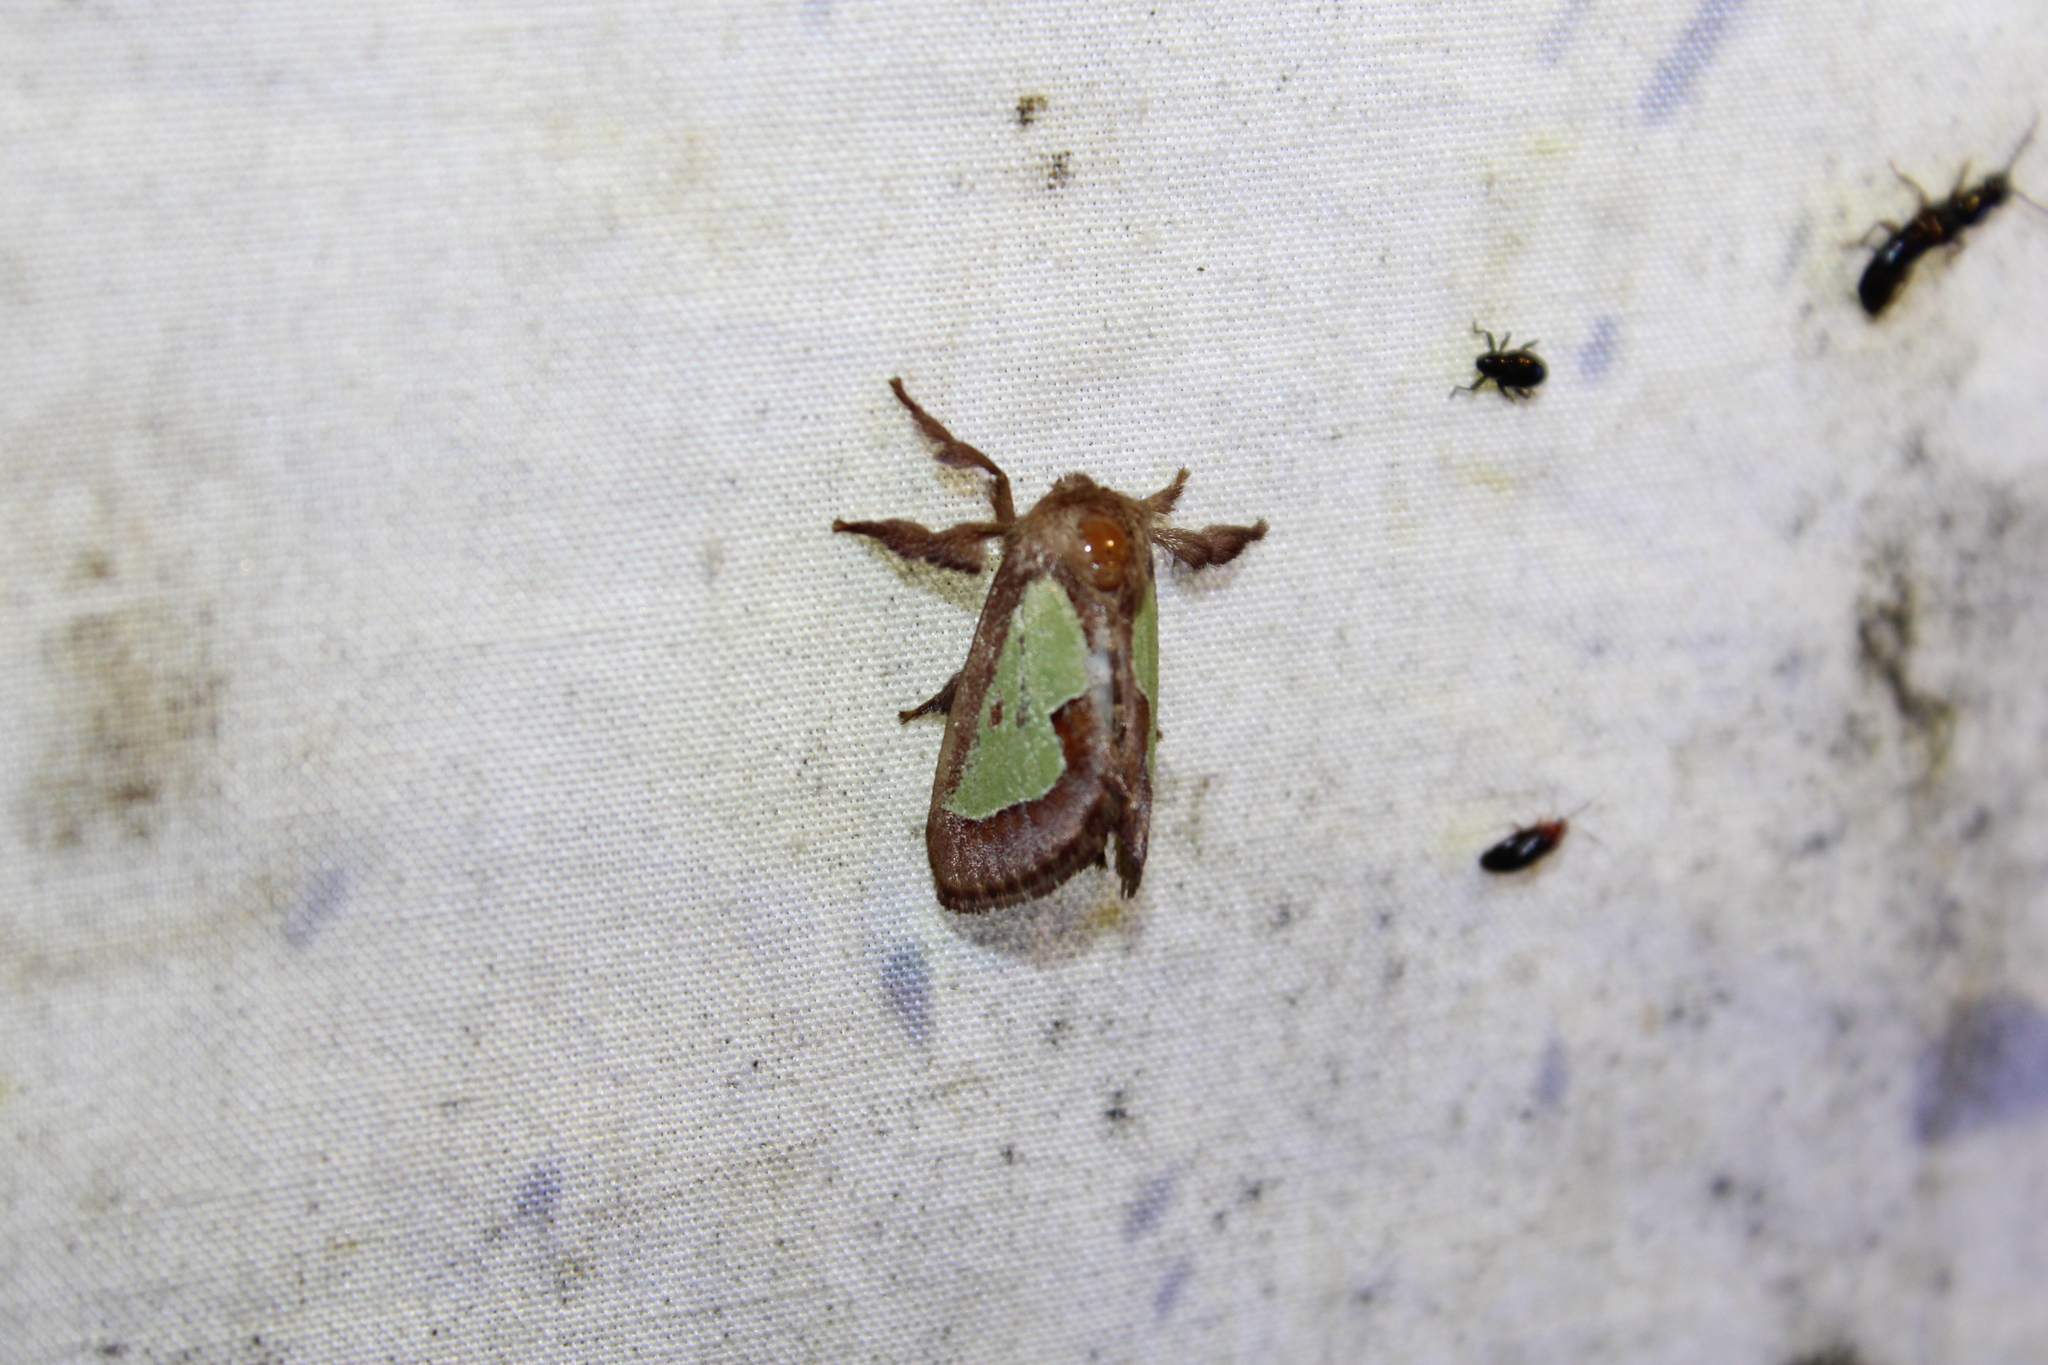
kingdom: Animalia
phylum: Arthropoda
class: Insecta
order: Lepidoptera
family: Limacodidae
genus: Euclea
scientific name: Euclea delphinii
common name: Spiny oak-slug moth
